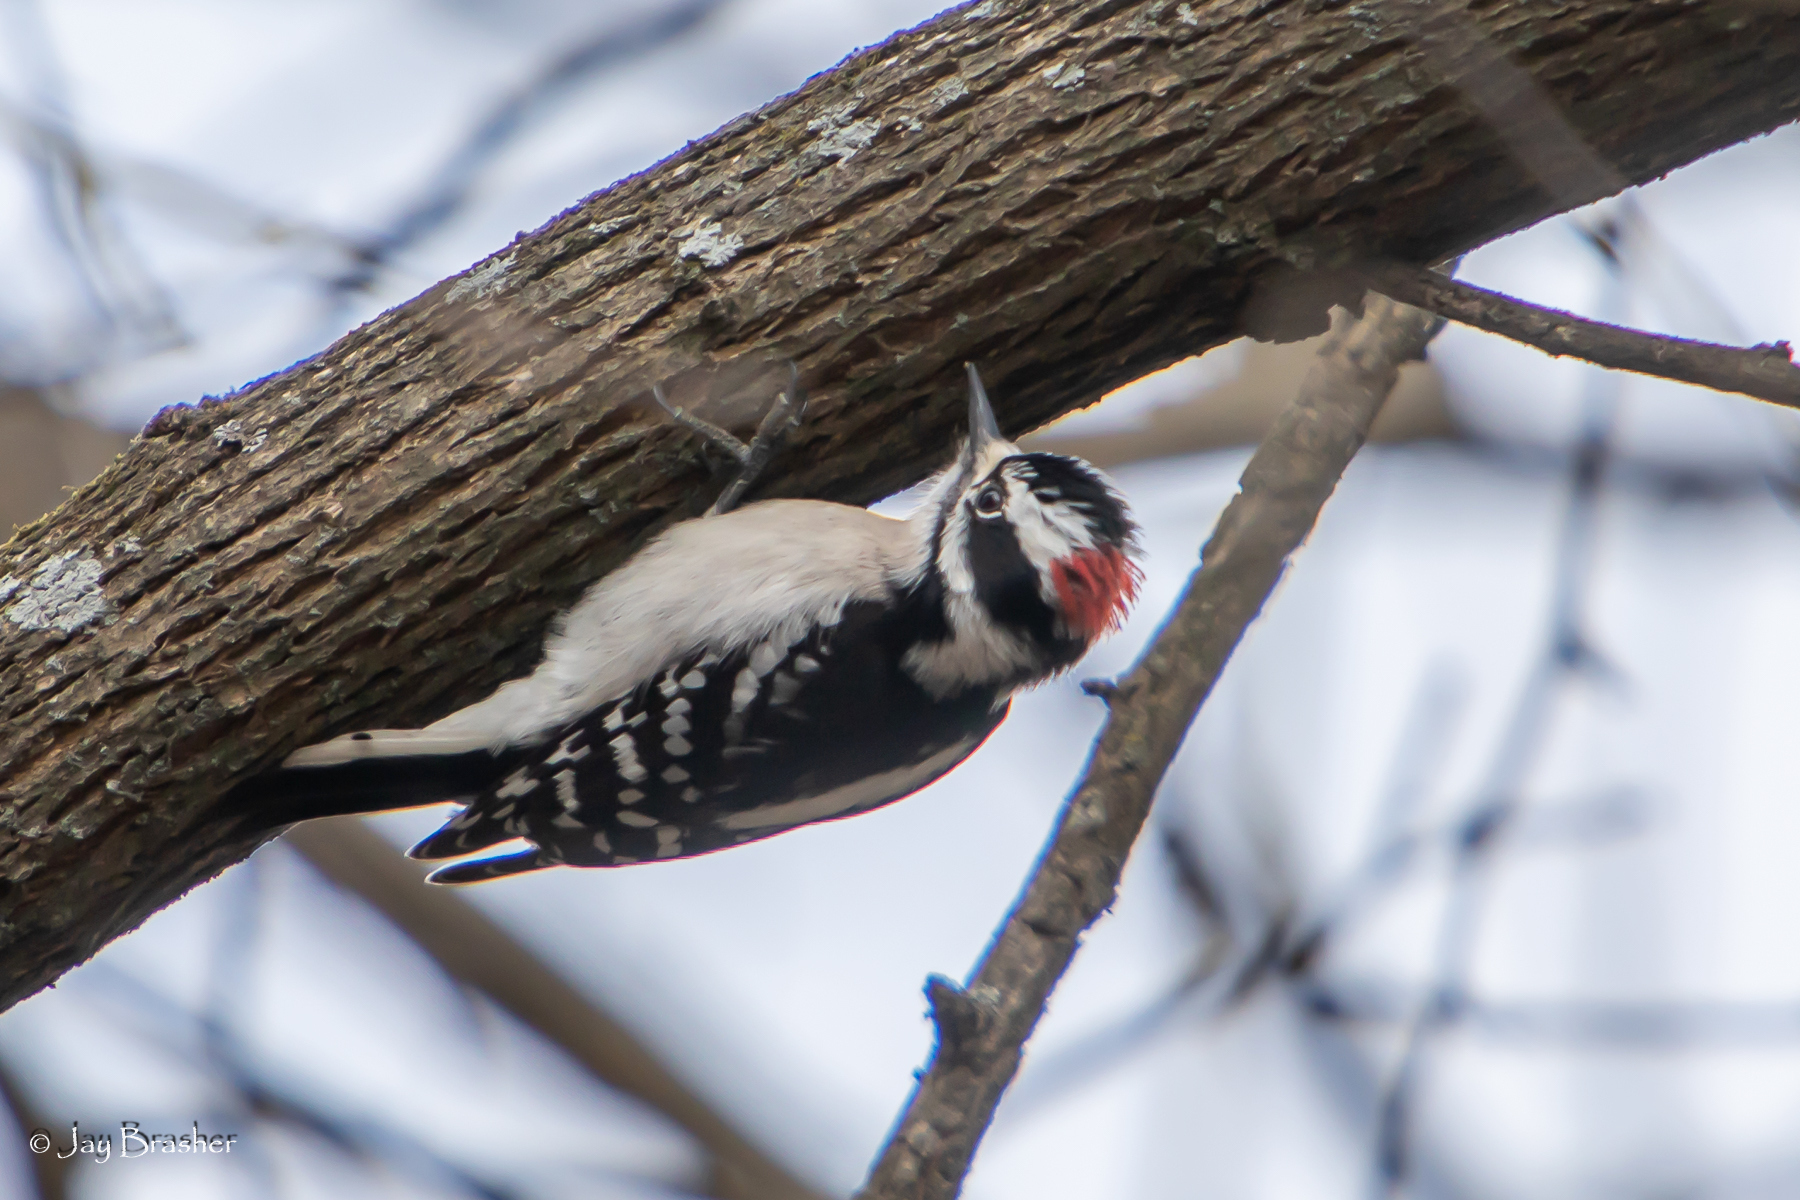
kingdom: Animalia
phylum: Chordata
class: Aves
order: Piciformes
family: Picidae
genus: Dryobates
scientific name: Dryobates pubescens
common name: Downy woodpecker
